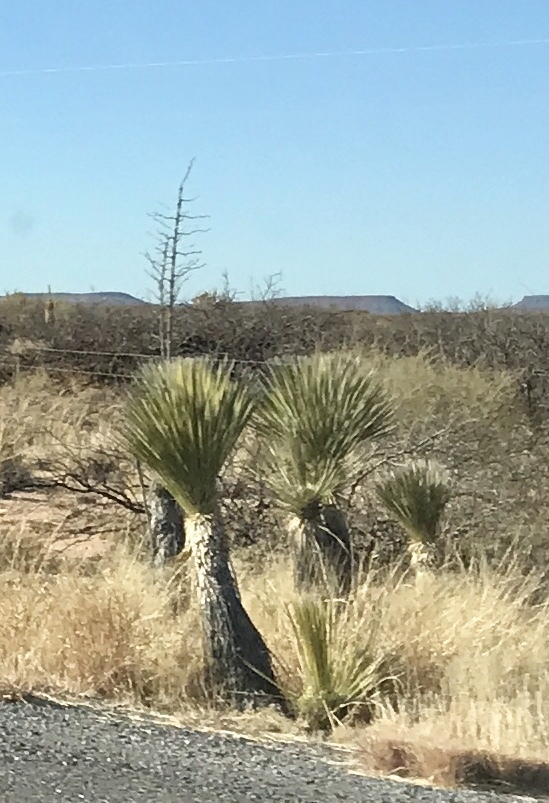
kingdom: Plantae
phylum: Tracheophyta
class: Liliopsida
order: Asparagales
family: Asparagaceae
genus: Yucca
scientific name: Yucca elata
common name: Palmella
